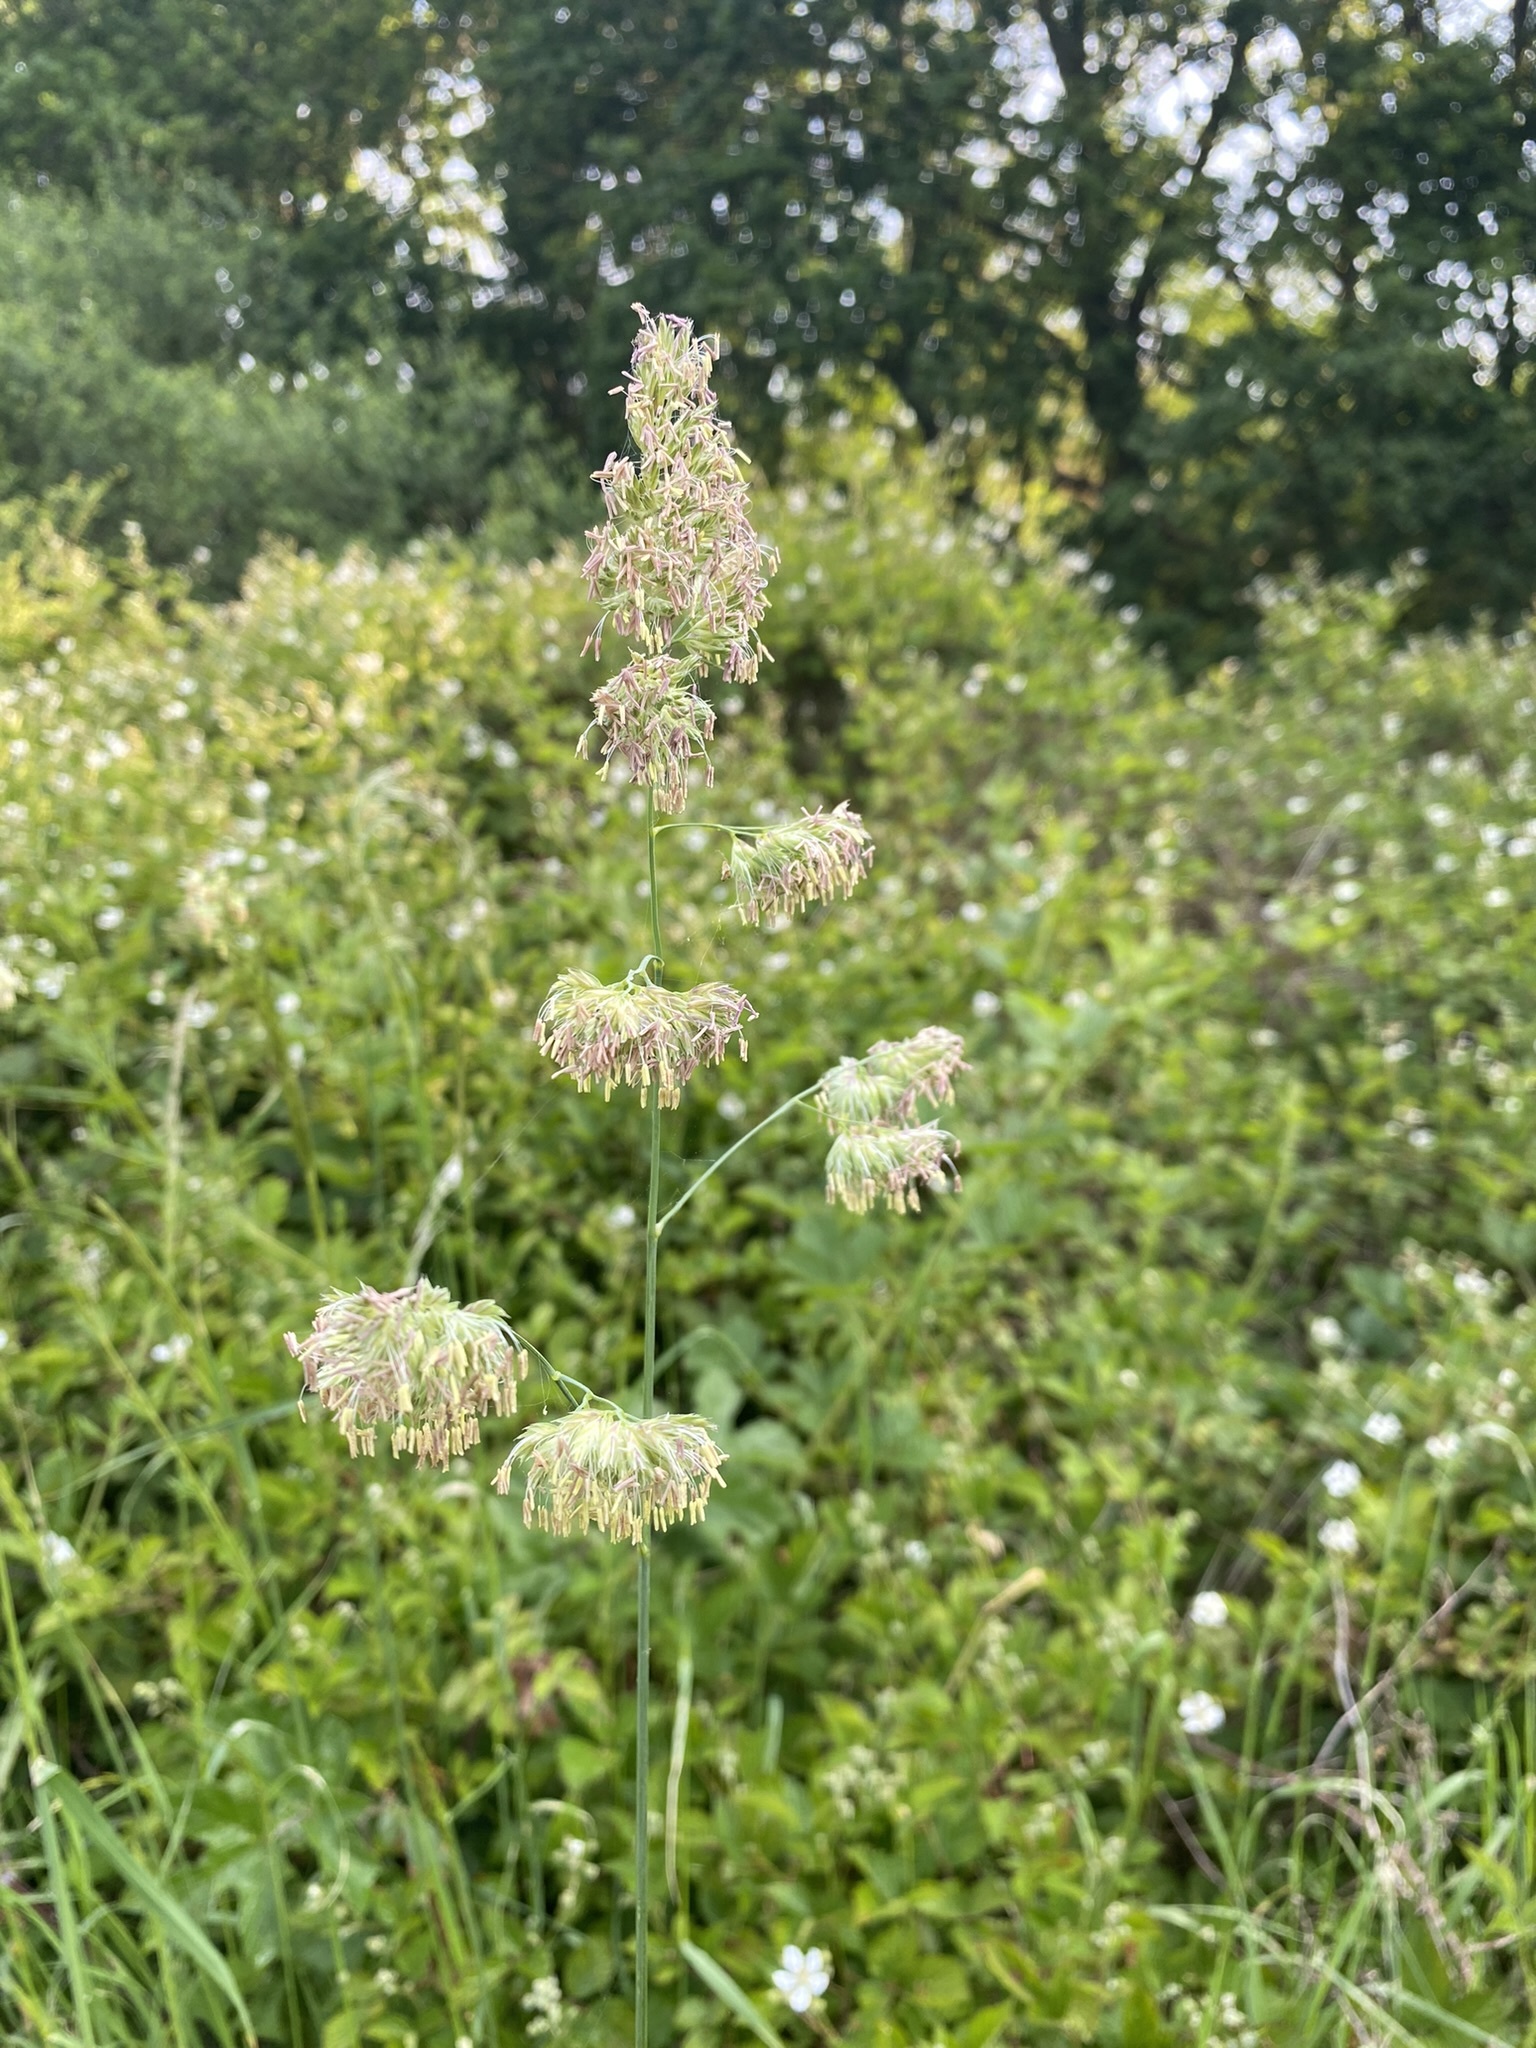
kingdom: Plantae
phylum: Tracheophyta
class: Liliopsida
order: Poales
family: Poaceae
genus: Dactylis
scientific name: Dactylis glomerata
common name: Orchardgrass
